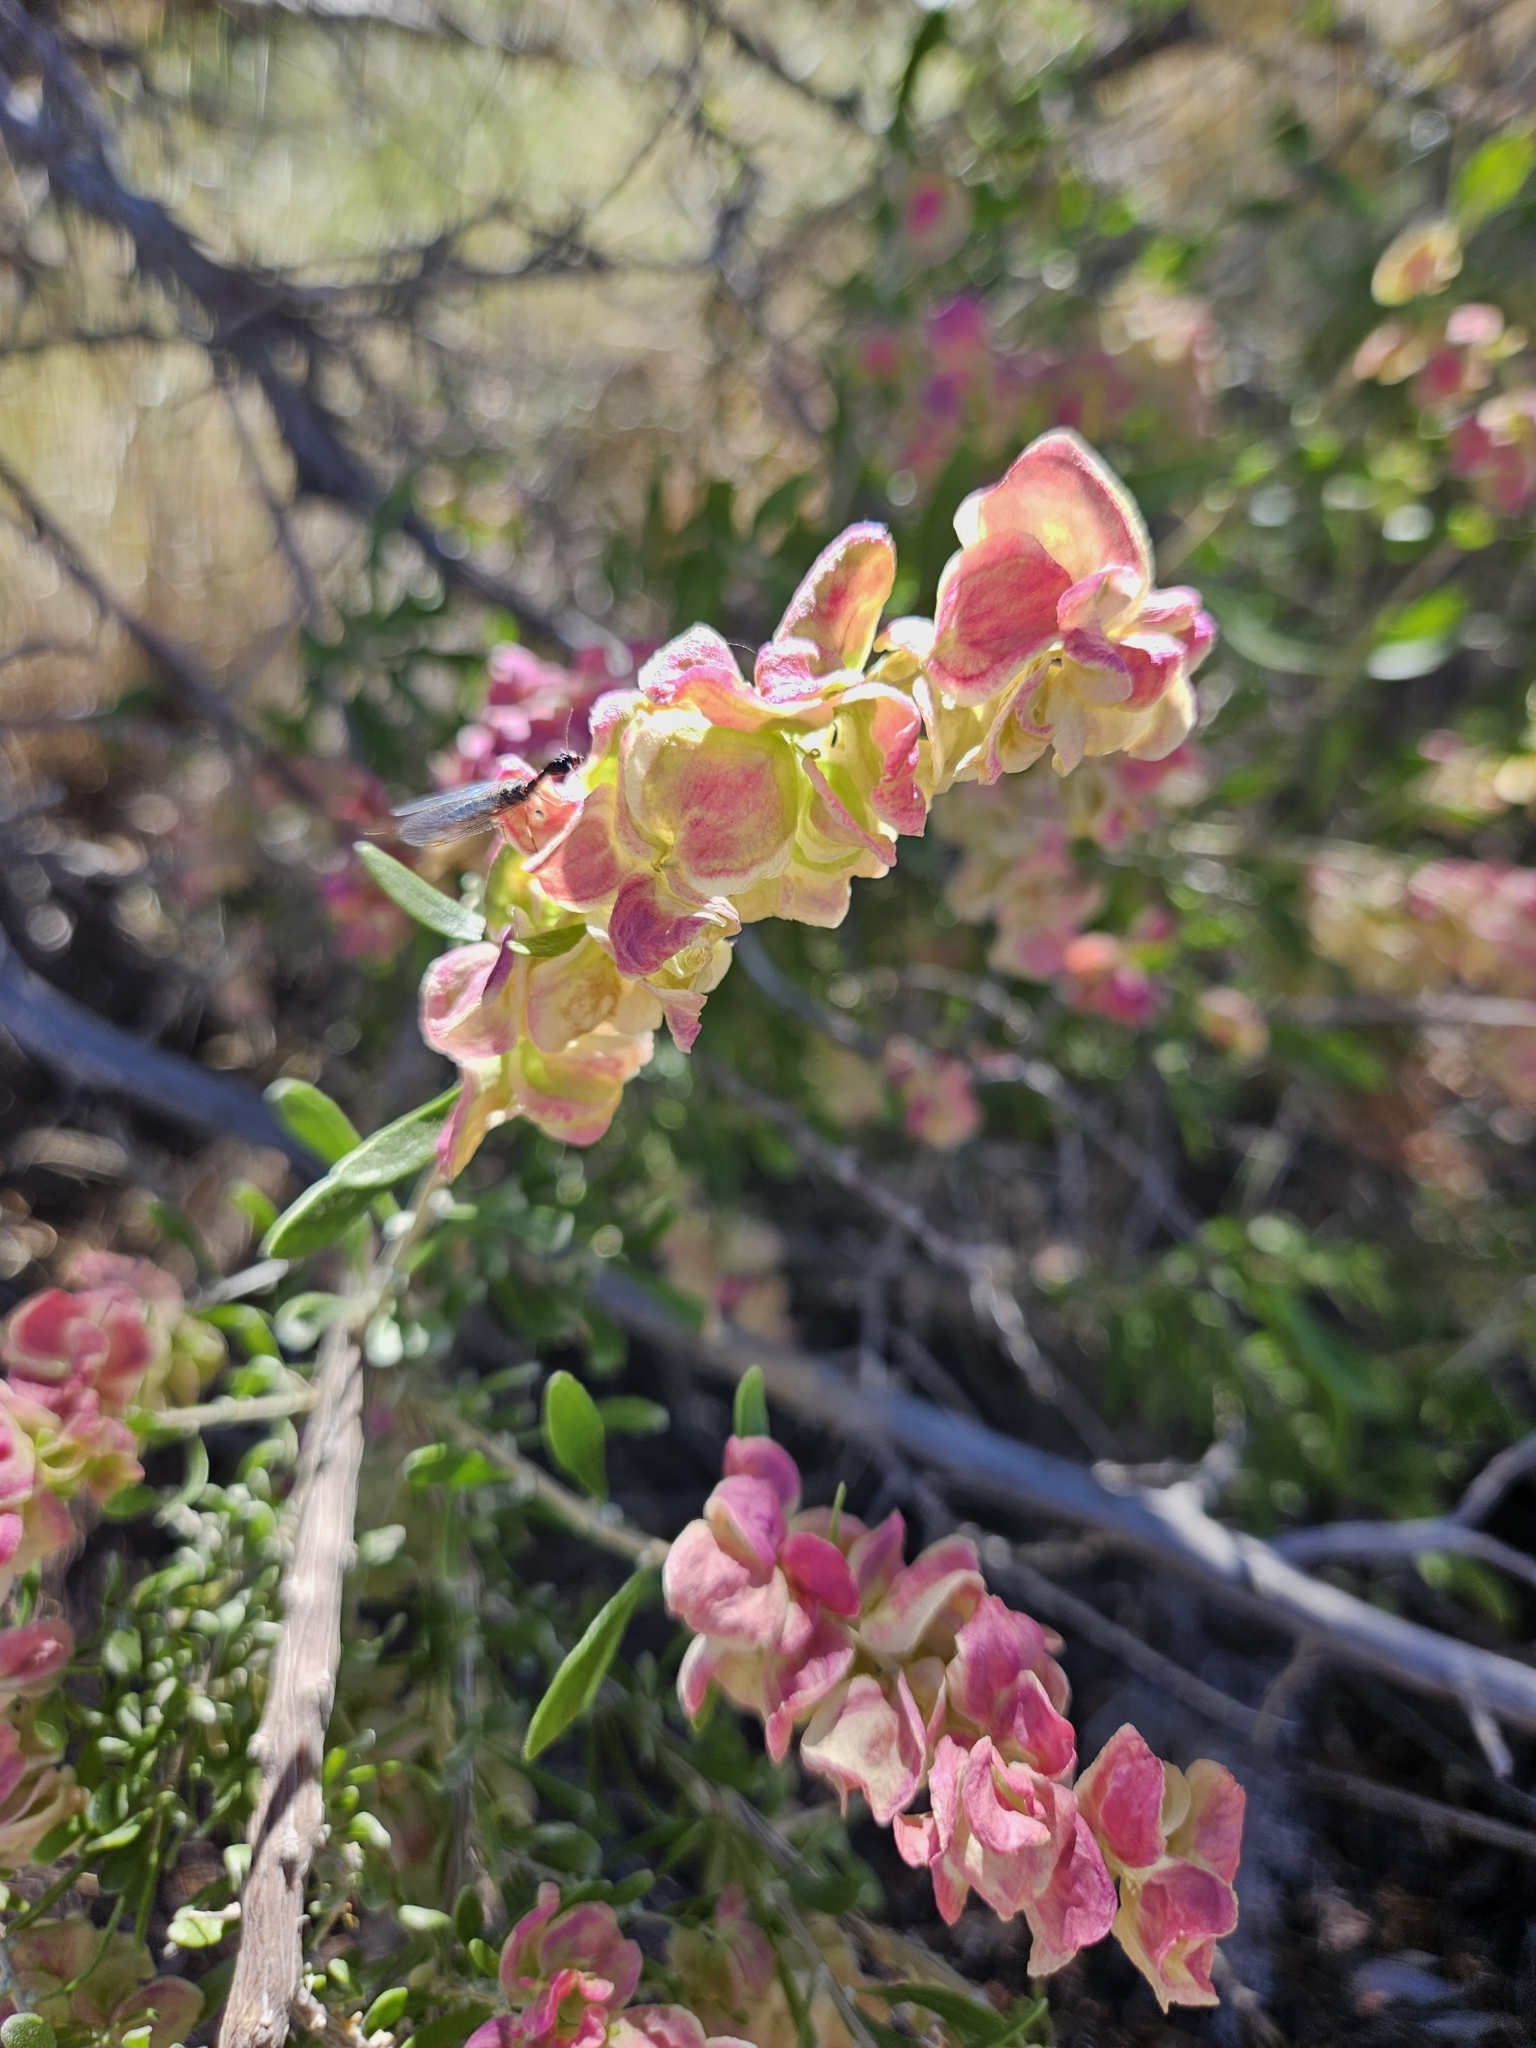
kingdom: Plantae
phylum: Tracheophyta
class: Magnoliopsida
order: Caryophyllales
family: Amaranthaceae
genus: Grayia
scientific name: Grayia spinosa
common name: Spiny hopsage
